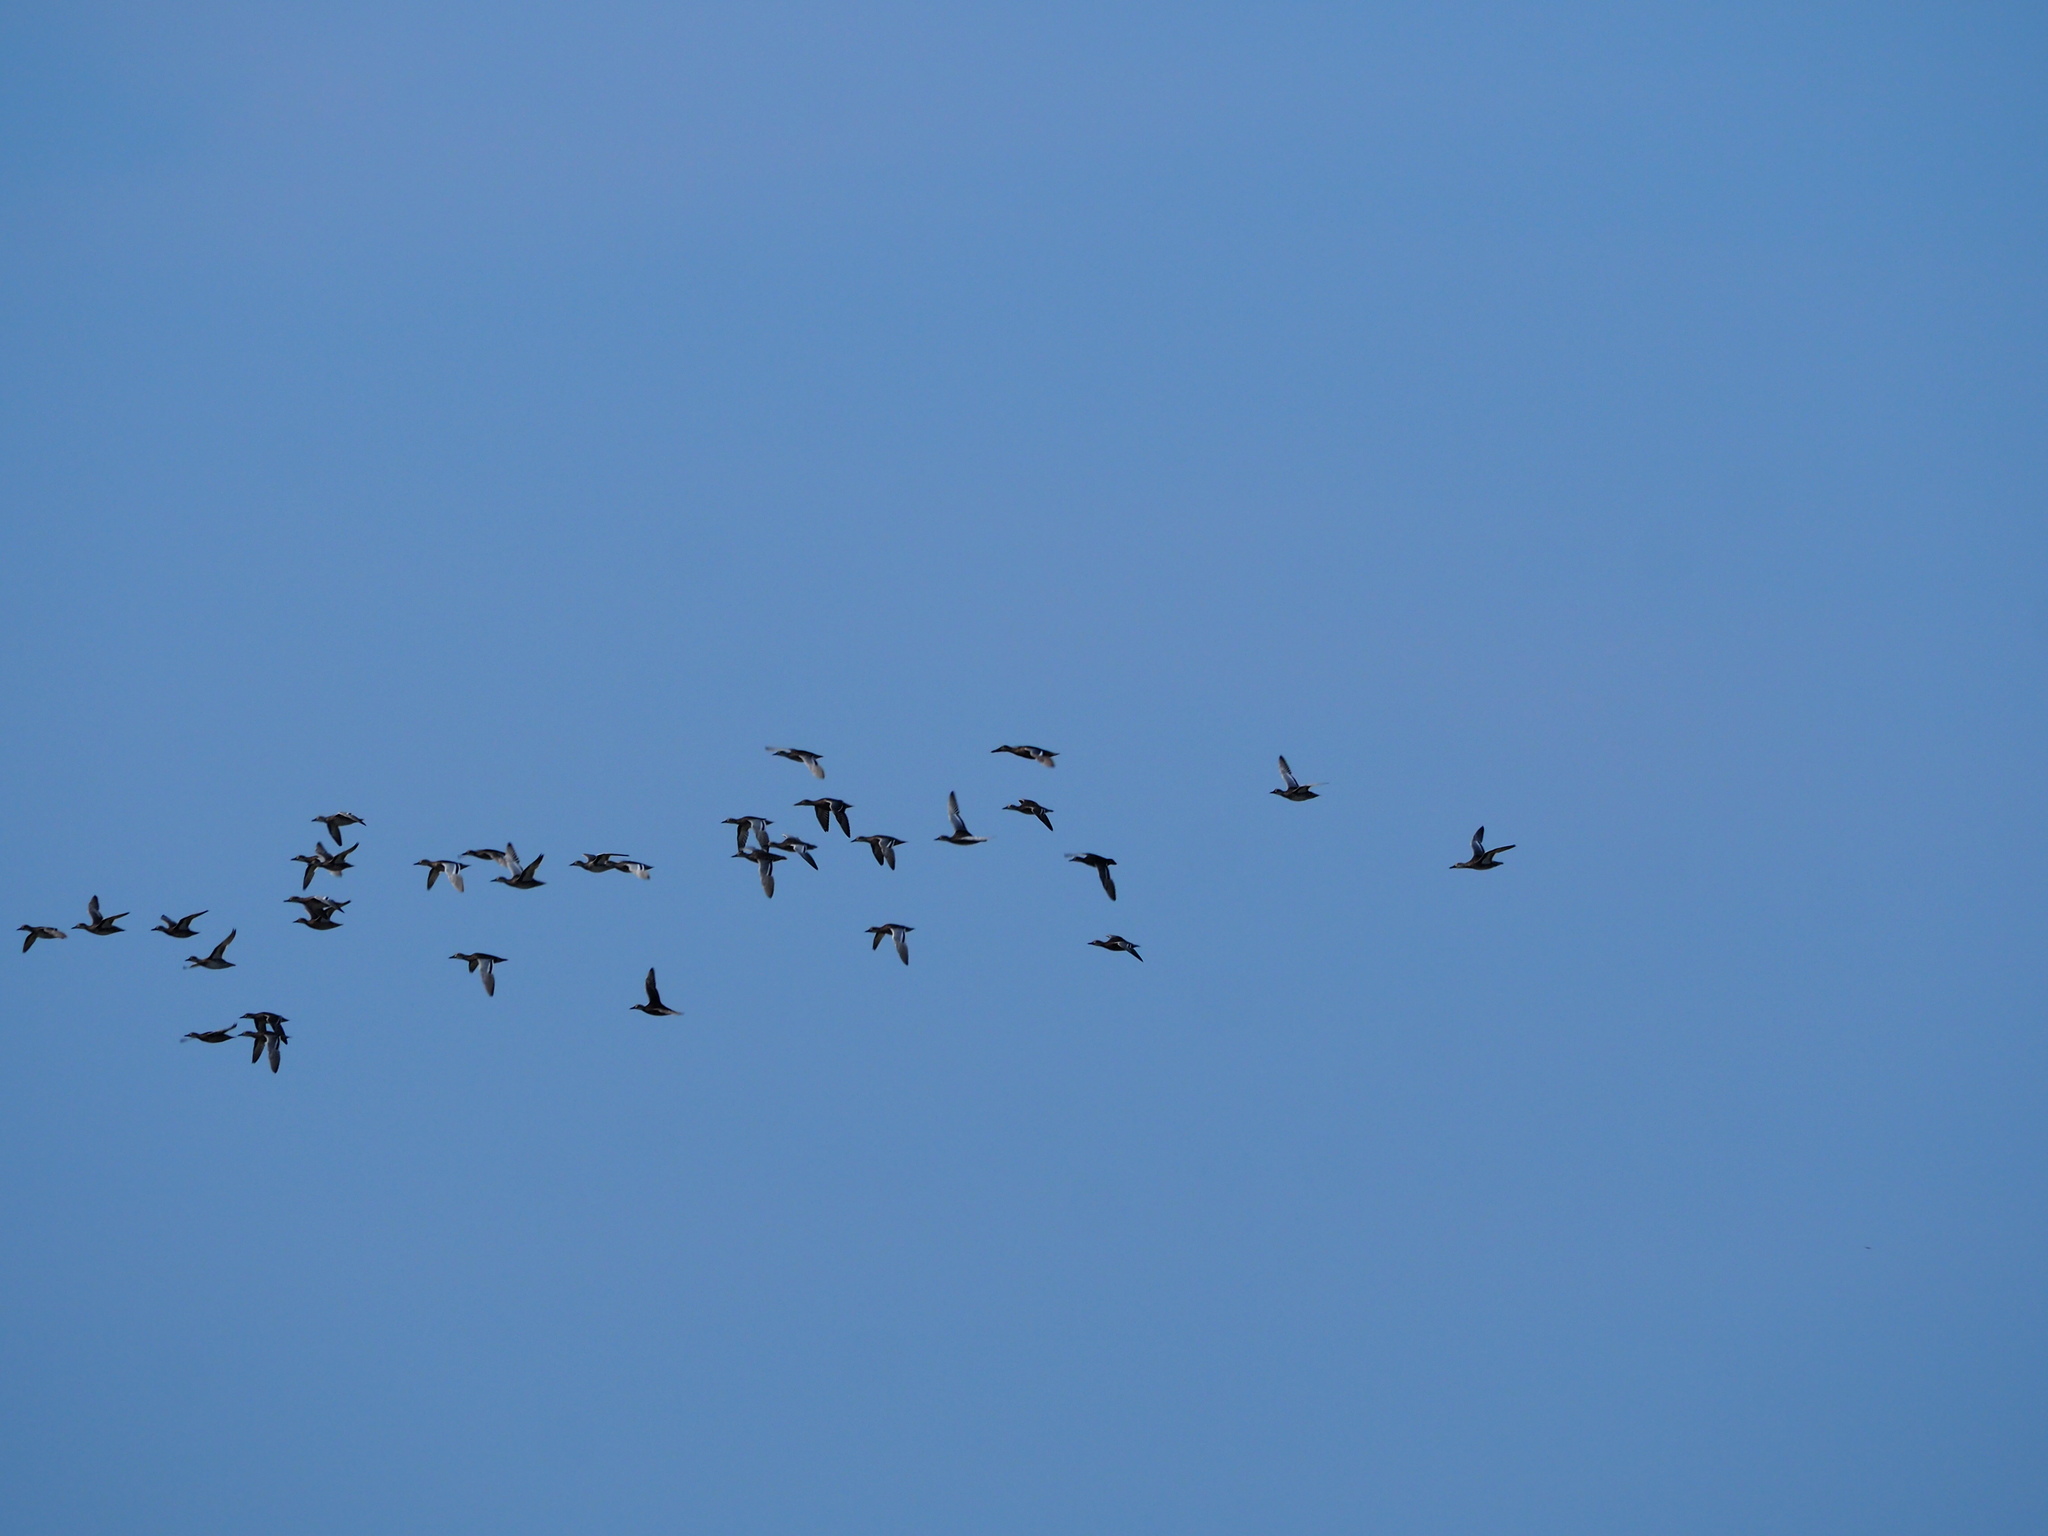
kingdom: Animalia
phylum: Chordata
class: Aves
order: Anseriformes
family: Anatidae
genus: Anas
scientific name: Anas crecca
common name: Eurasian teal
